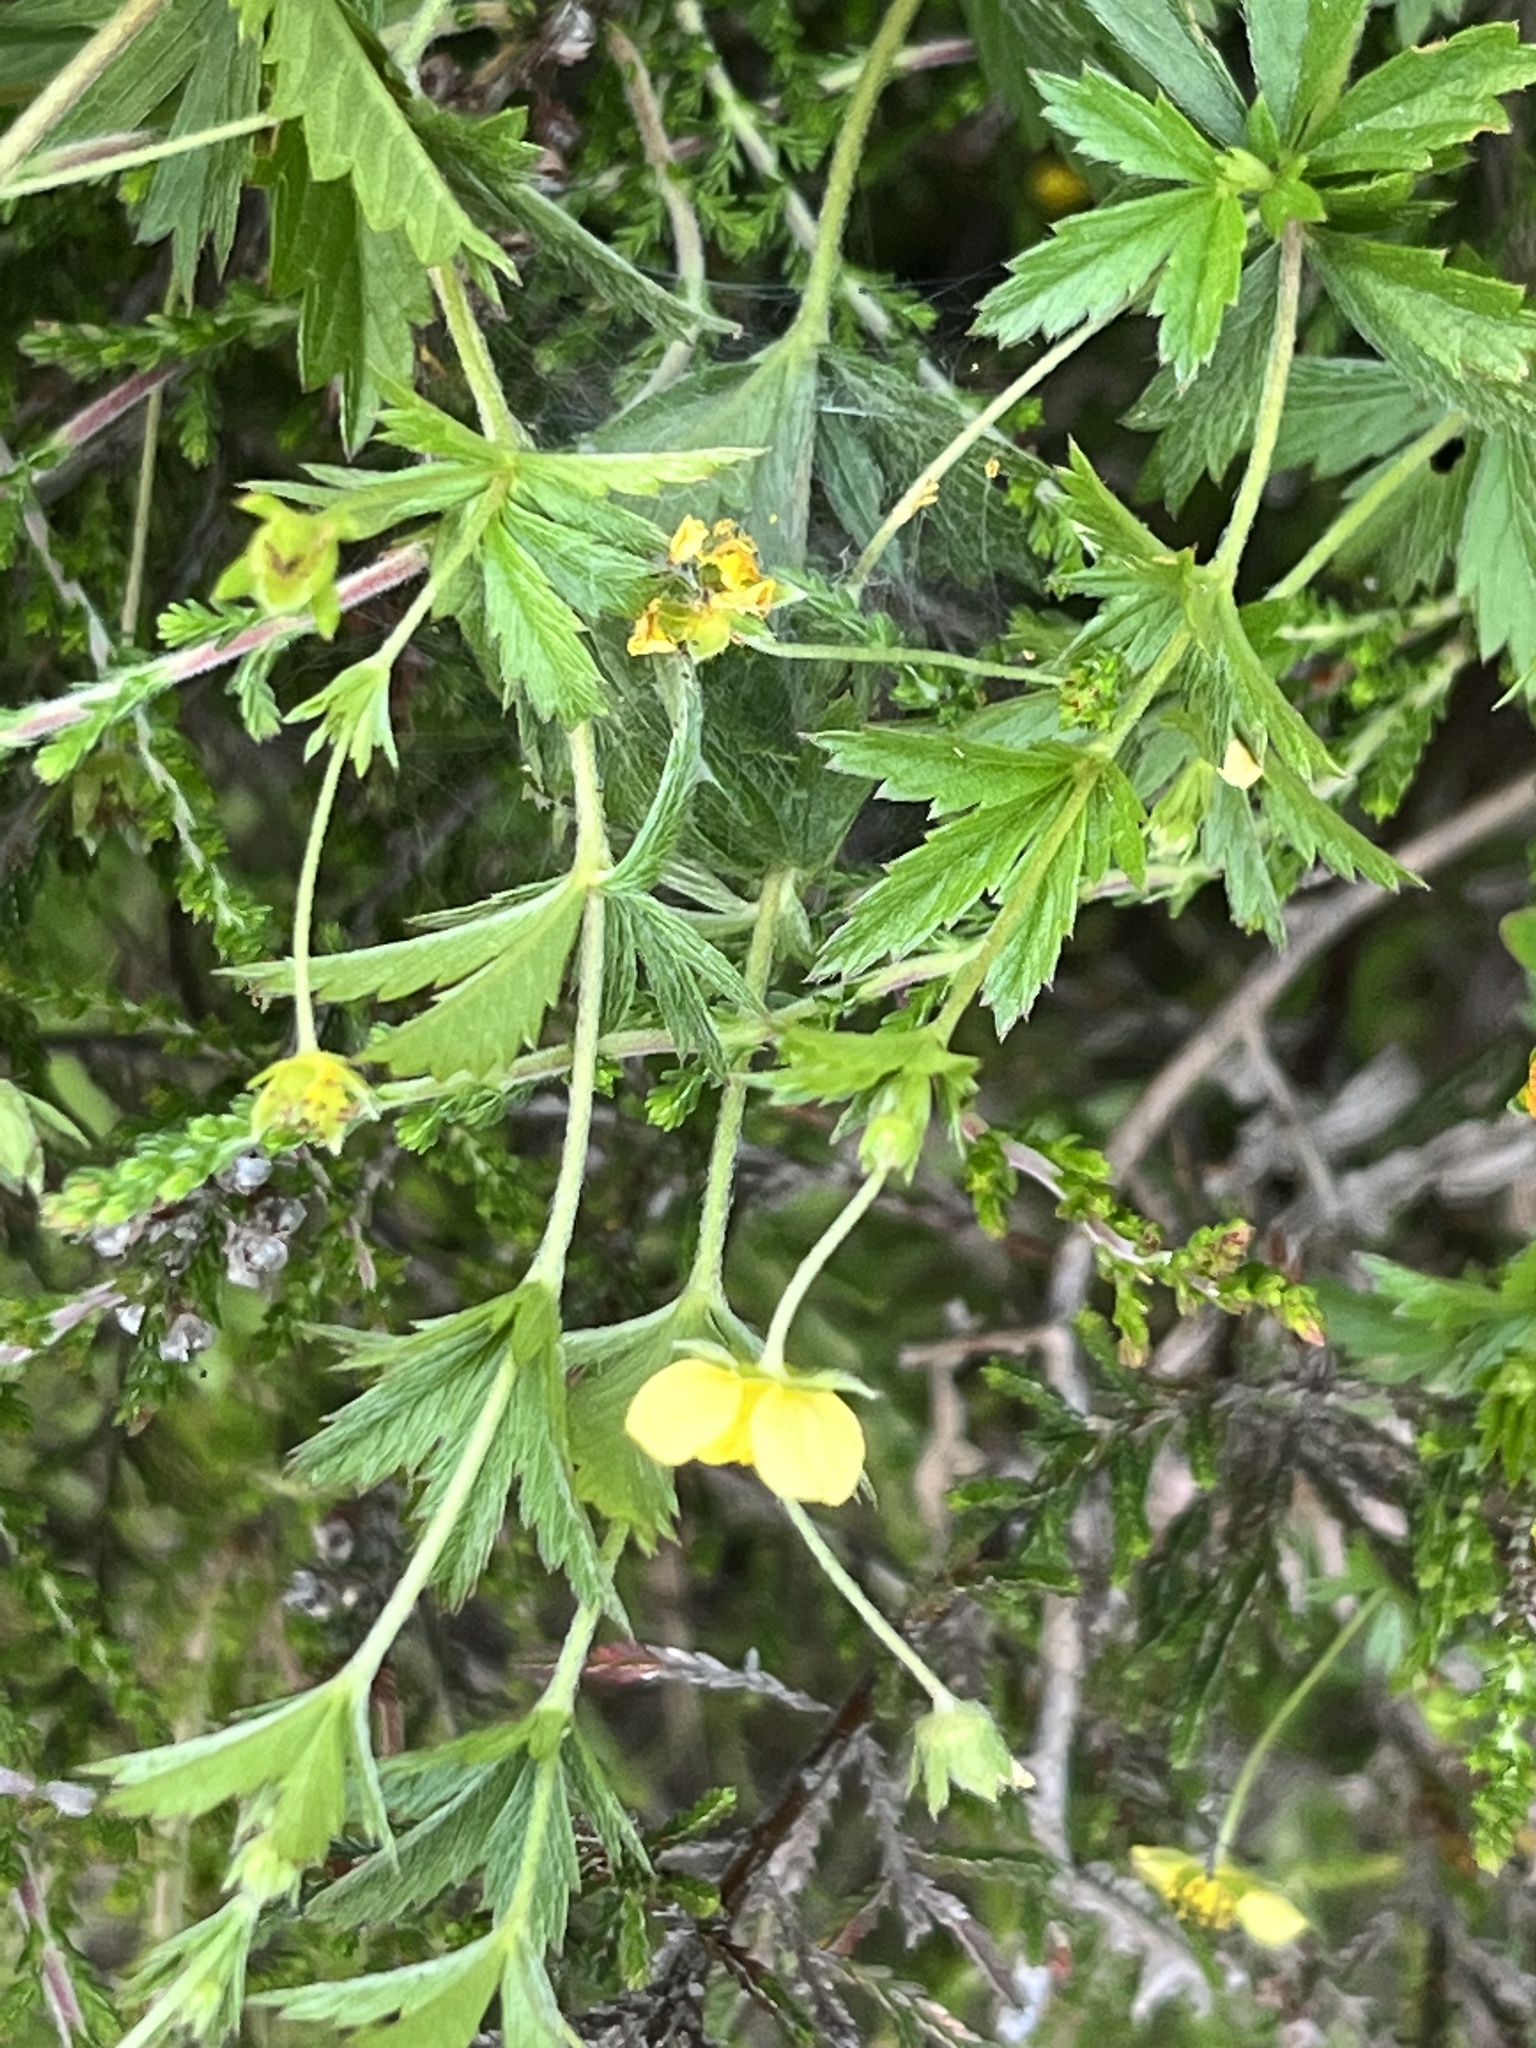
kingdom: Plantae
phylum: Tracheophyta
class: Magnoliopsida
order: Rosales
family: Rosaceae
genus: Potentilla
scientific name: Potentilla erecta
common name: Tormentil
